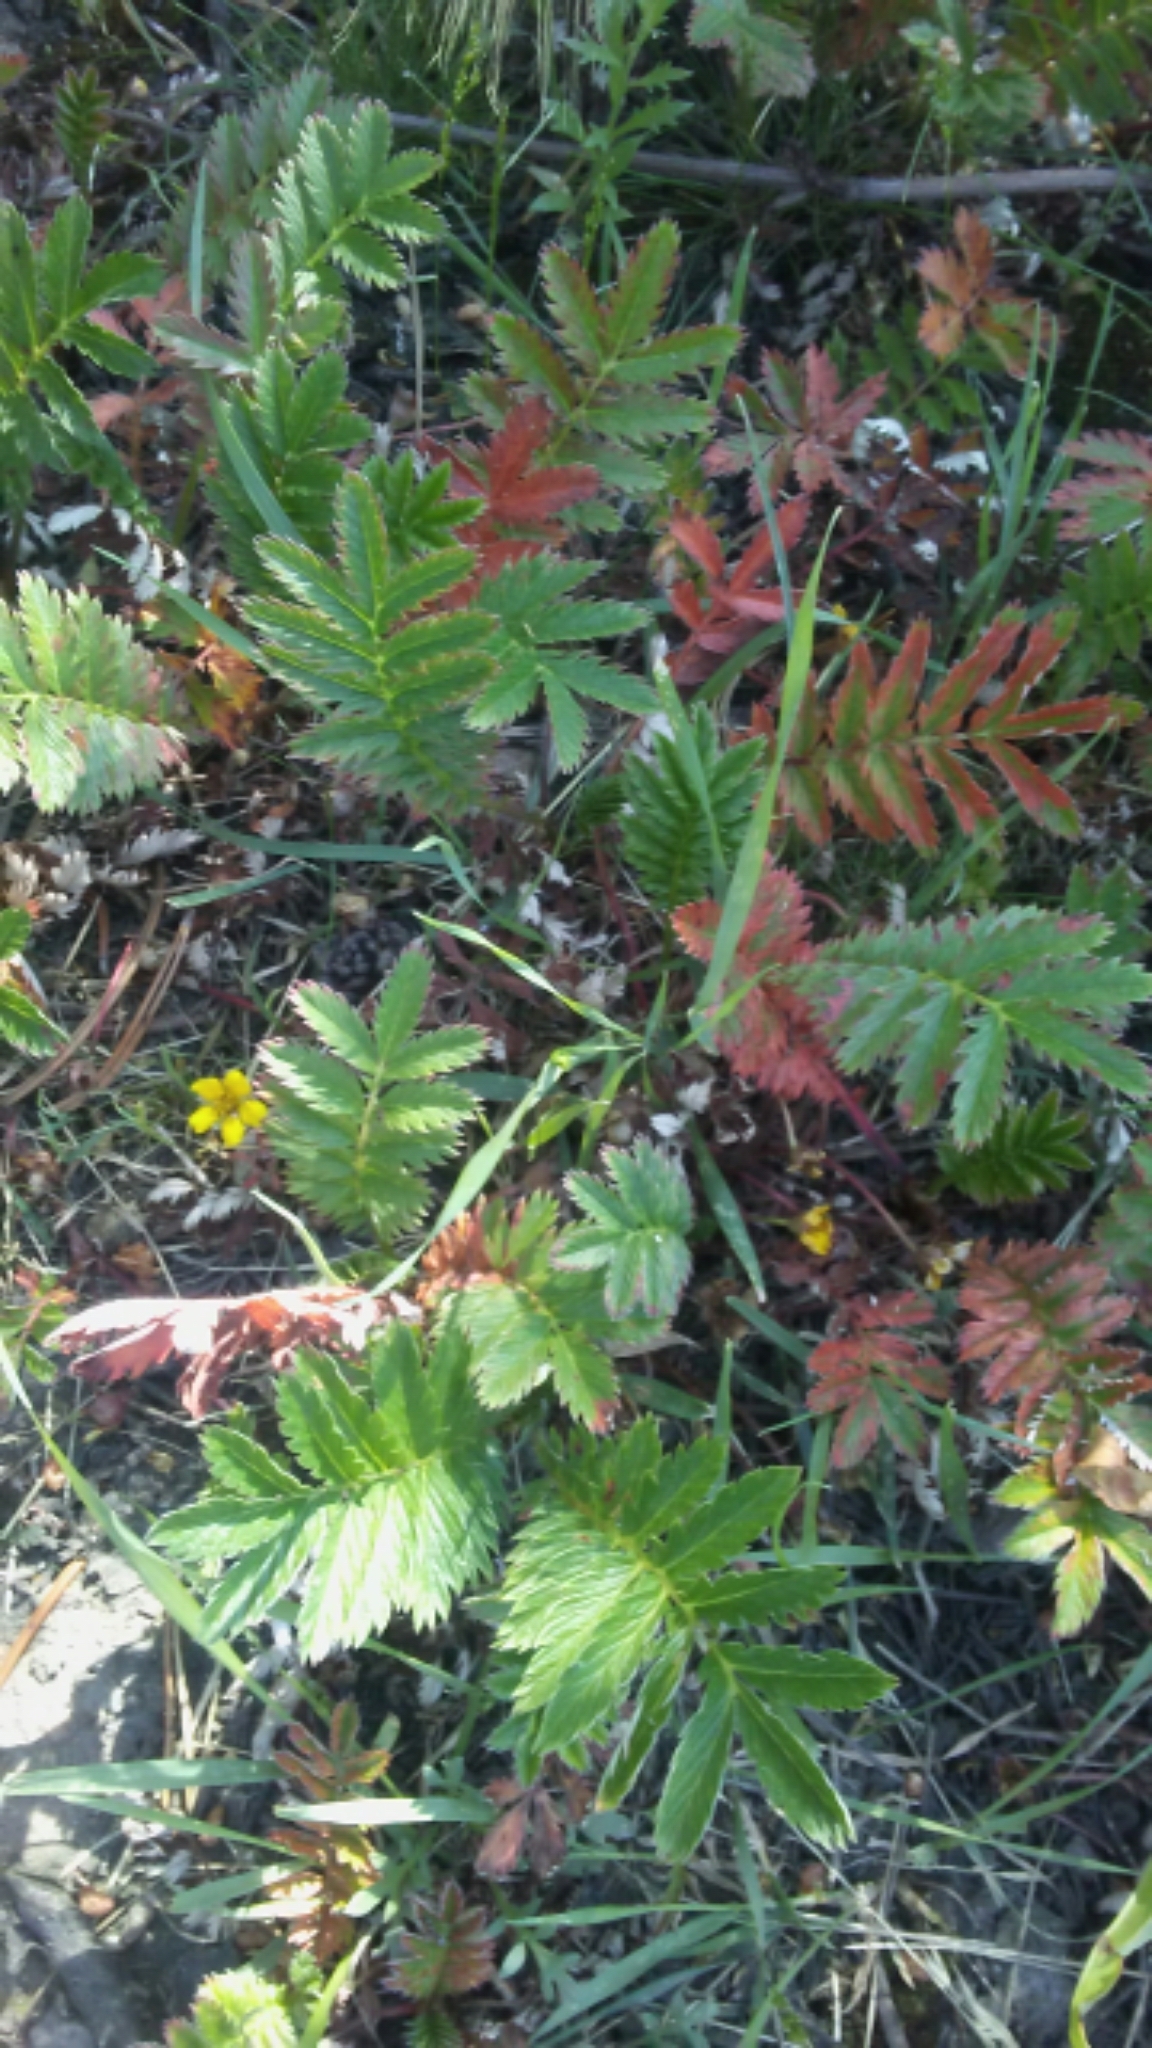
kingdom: Plantae
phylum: Tracheophyta
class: Magnoliopsida
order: Rosales
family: Rosaceae
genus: Argentina
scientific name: Argentina anserina
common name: Common silverweed
